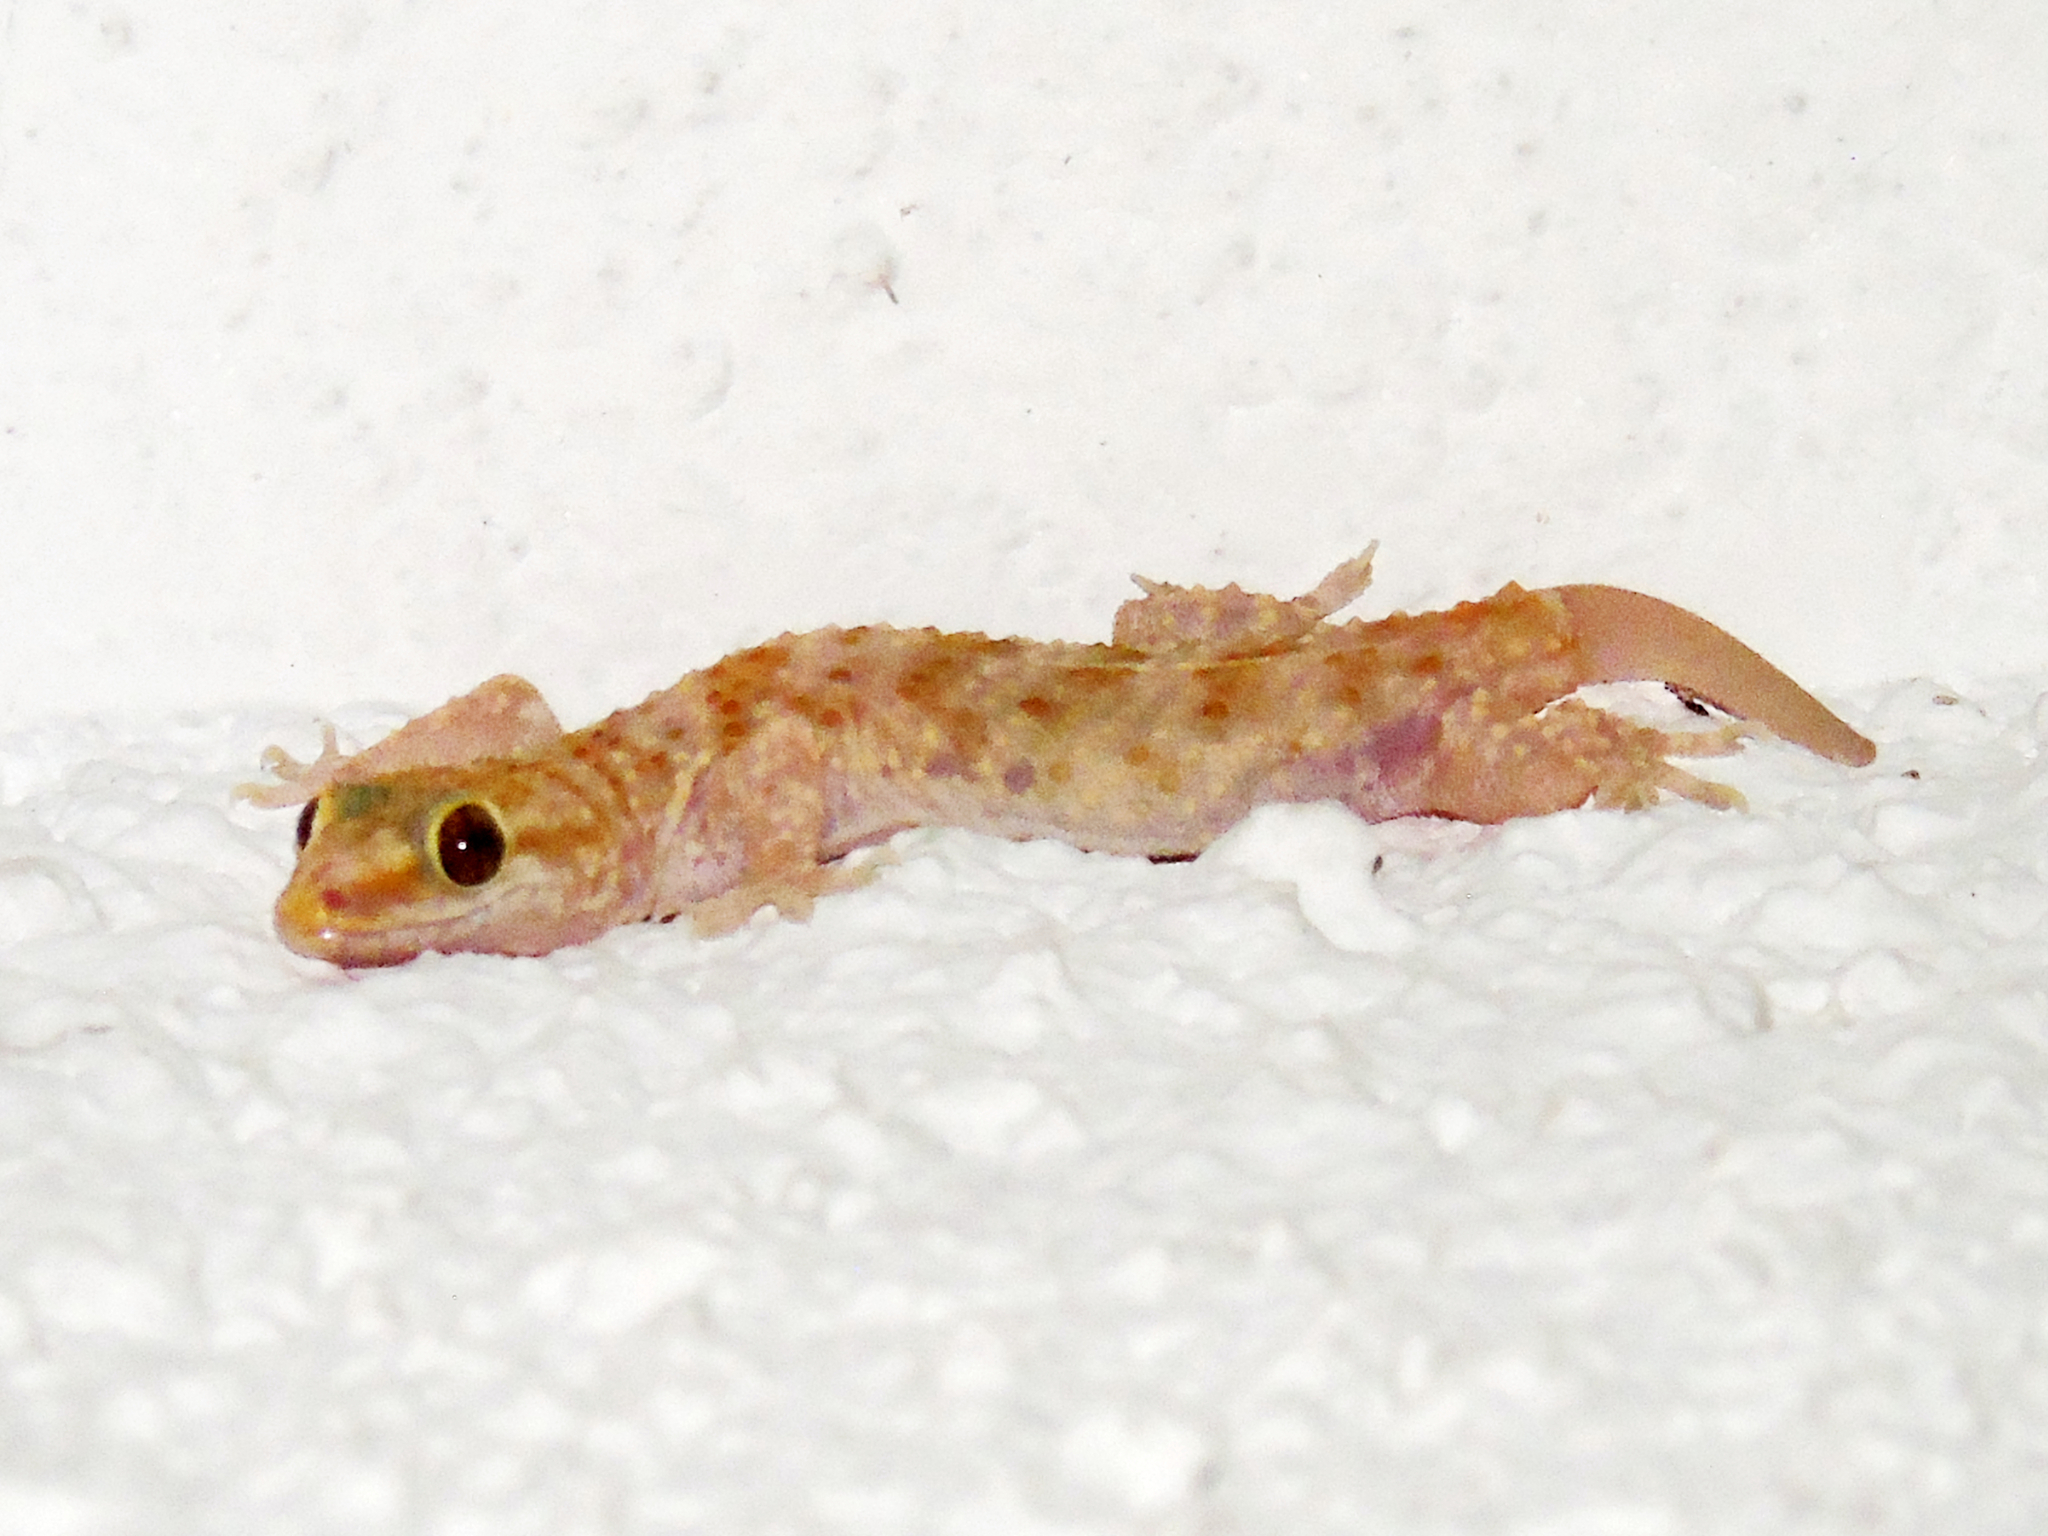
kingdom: Animalia
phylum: Chordata
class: Squamata
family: Gekkonidae
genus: Hemidactylus
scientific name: Hemidactylus turcicus
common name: Turkish gecko
